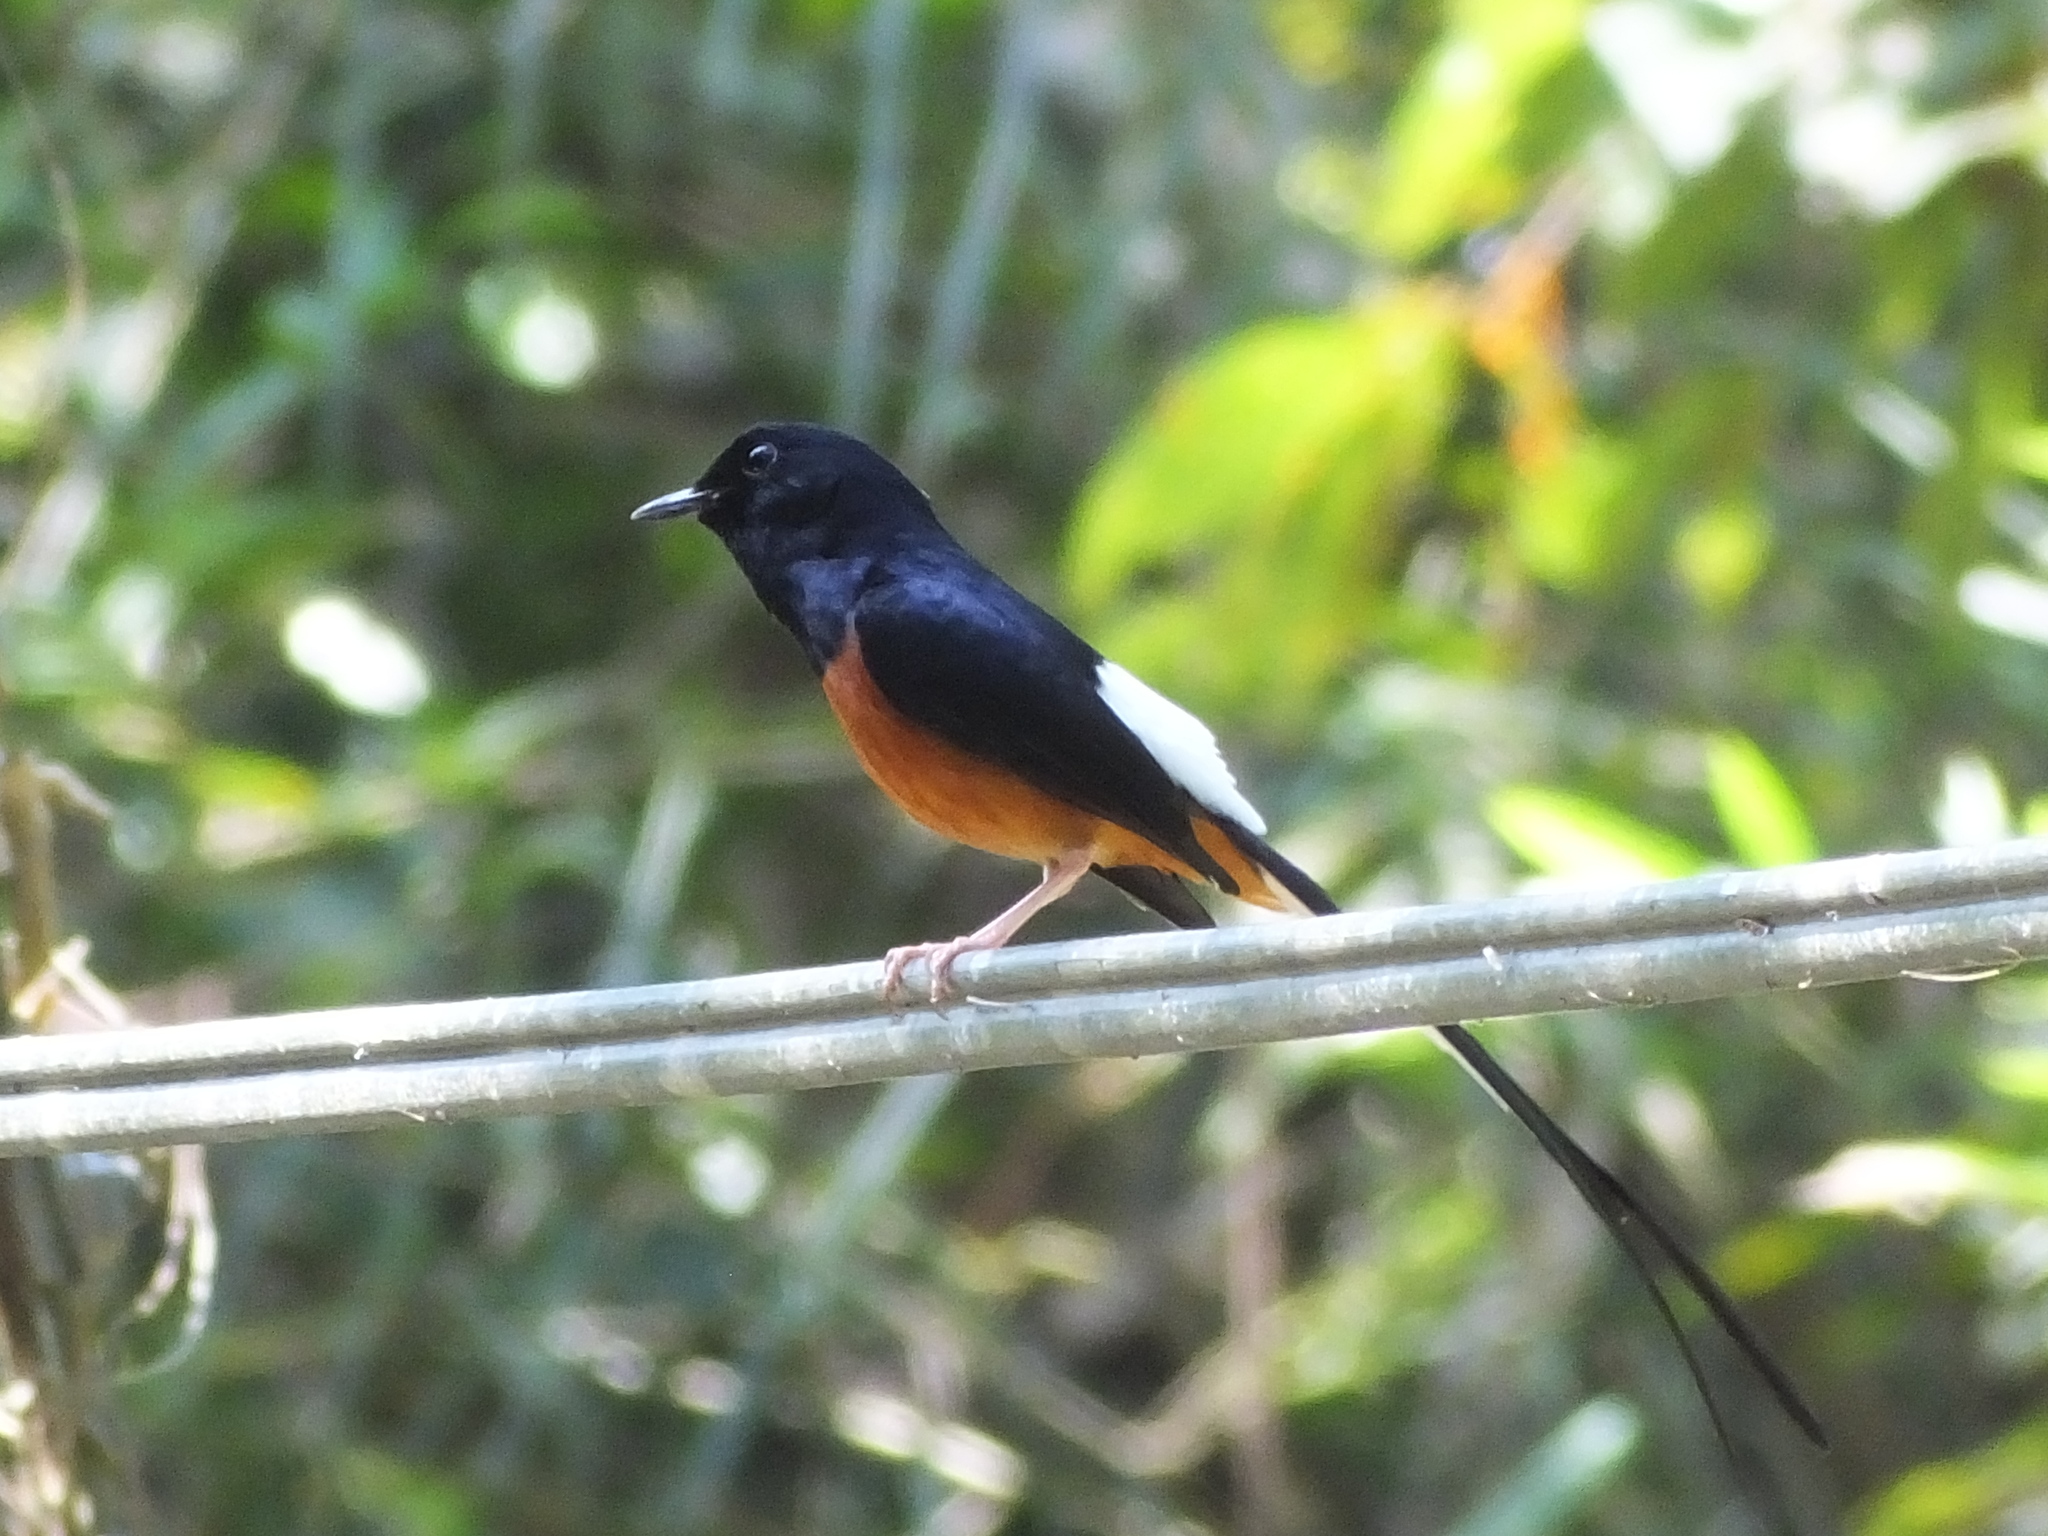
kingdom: Animalia
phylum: Chordata
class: Aves
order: Passeriformes
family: Muscicapidae
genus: Copsychus
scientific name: Copsychus malabaricus
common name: White-rumped shama
